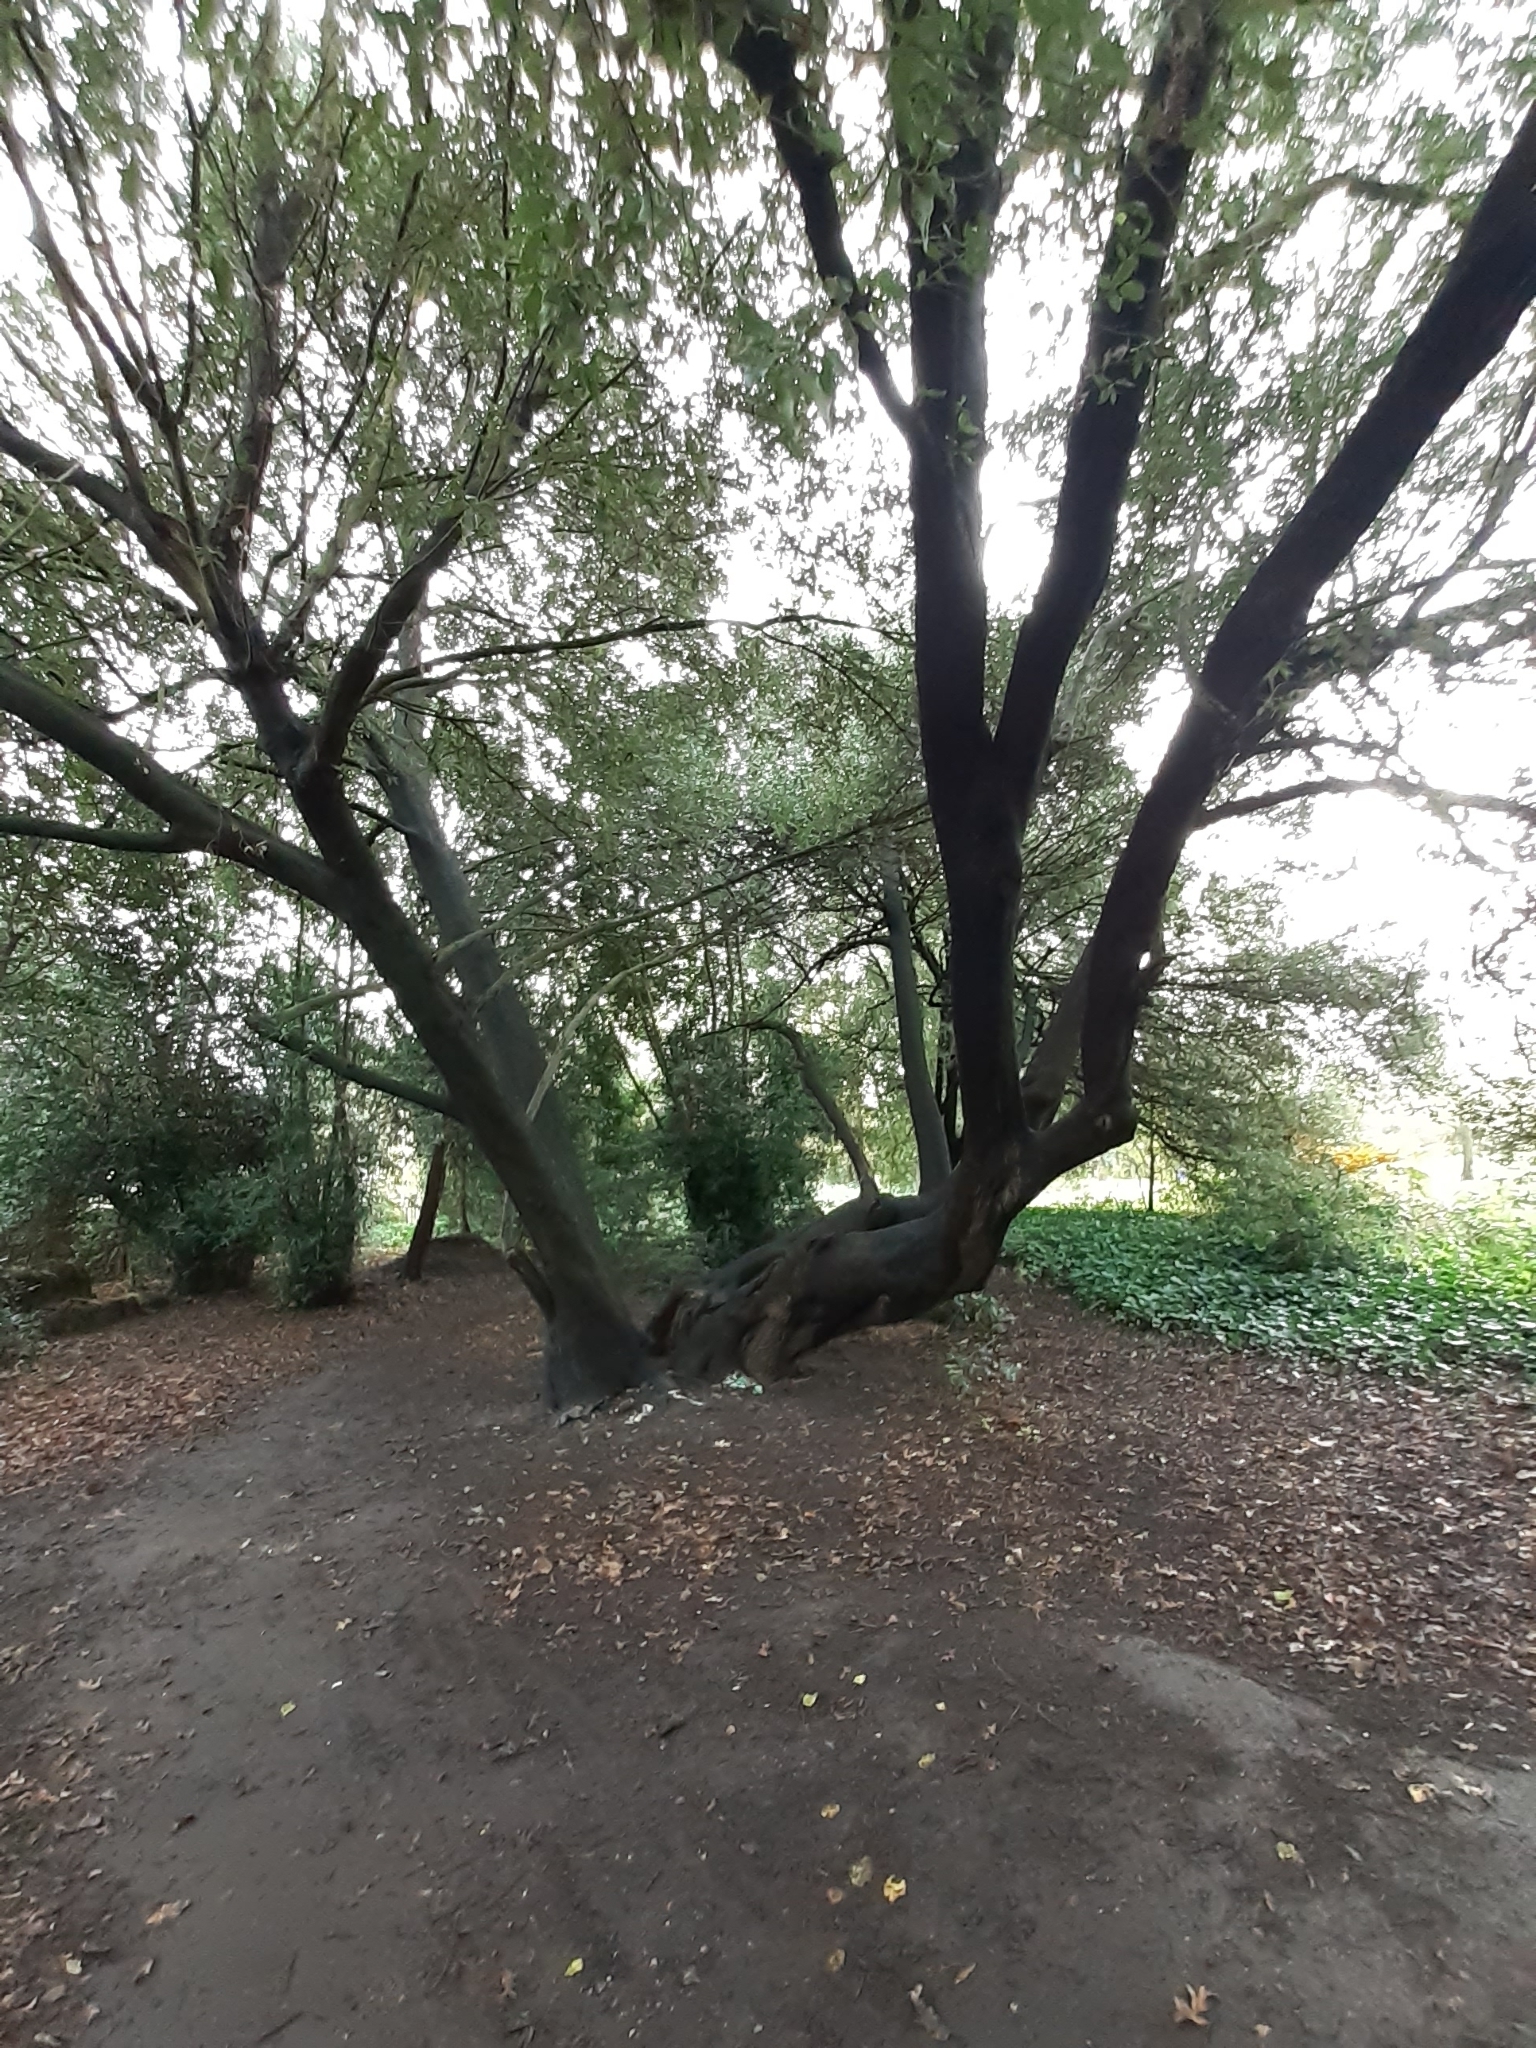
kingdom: Plantae
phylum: Tracheophyta
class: Magnoliopsida
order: Fagales
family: Fagaceae
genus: Quercus
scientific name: Quercus ilex
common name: Evergreen oak
